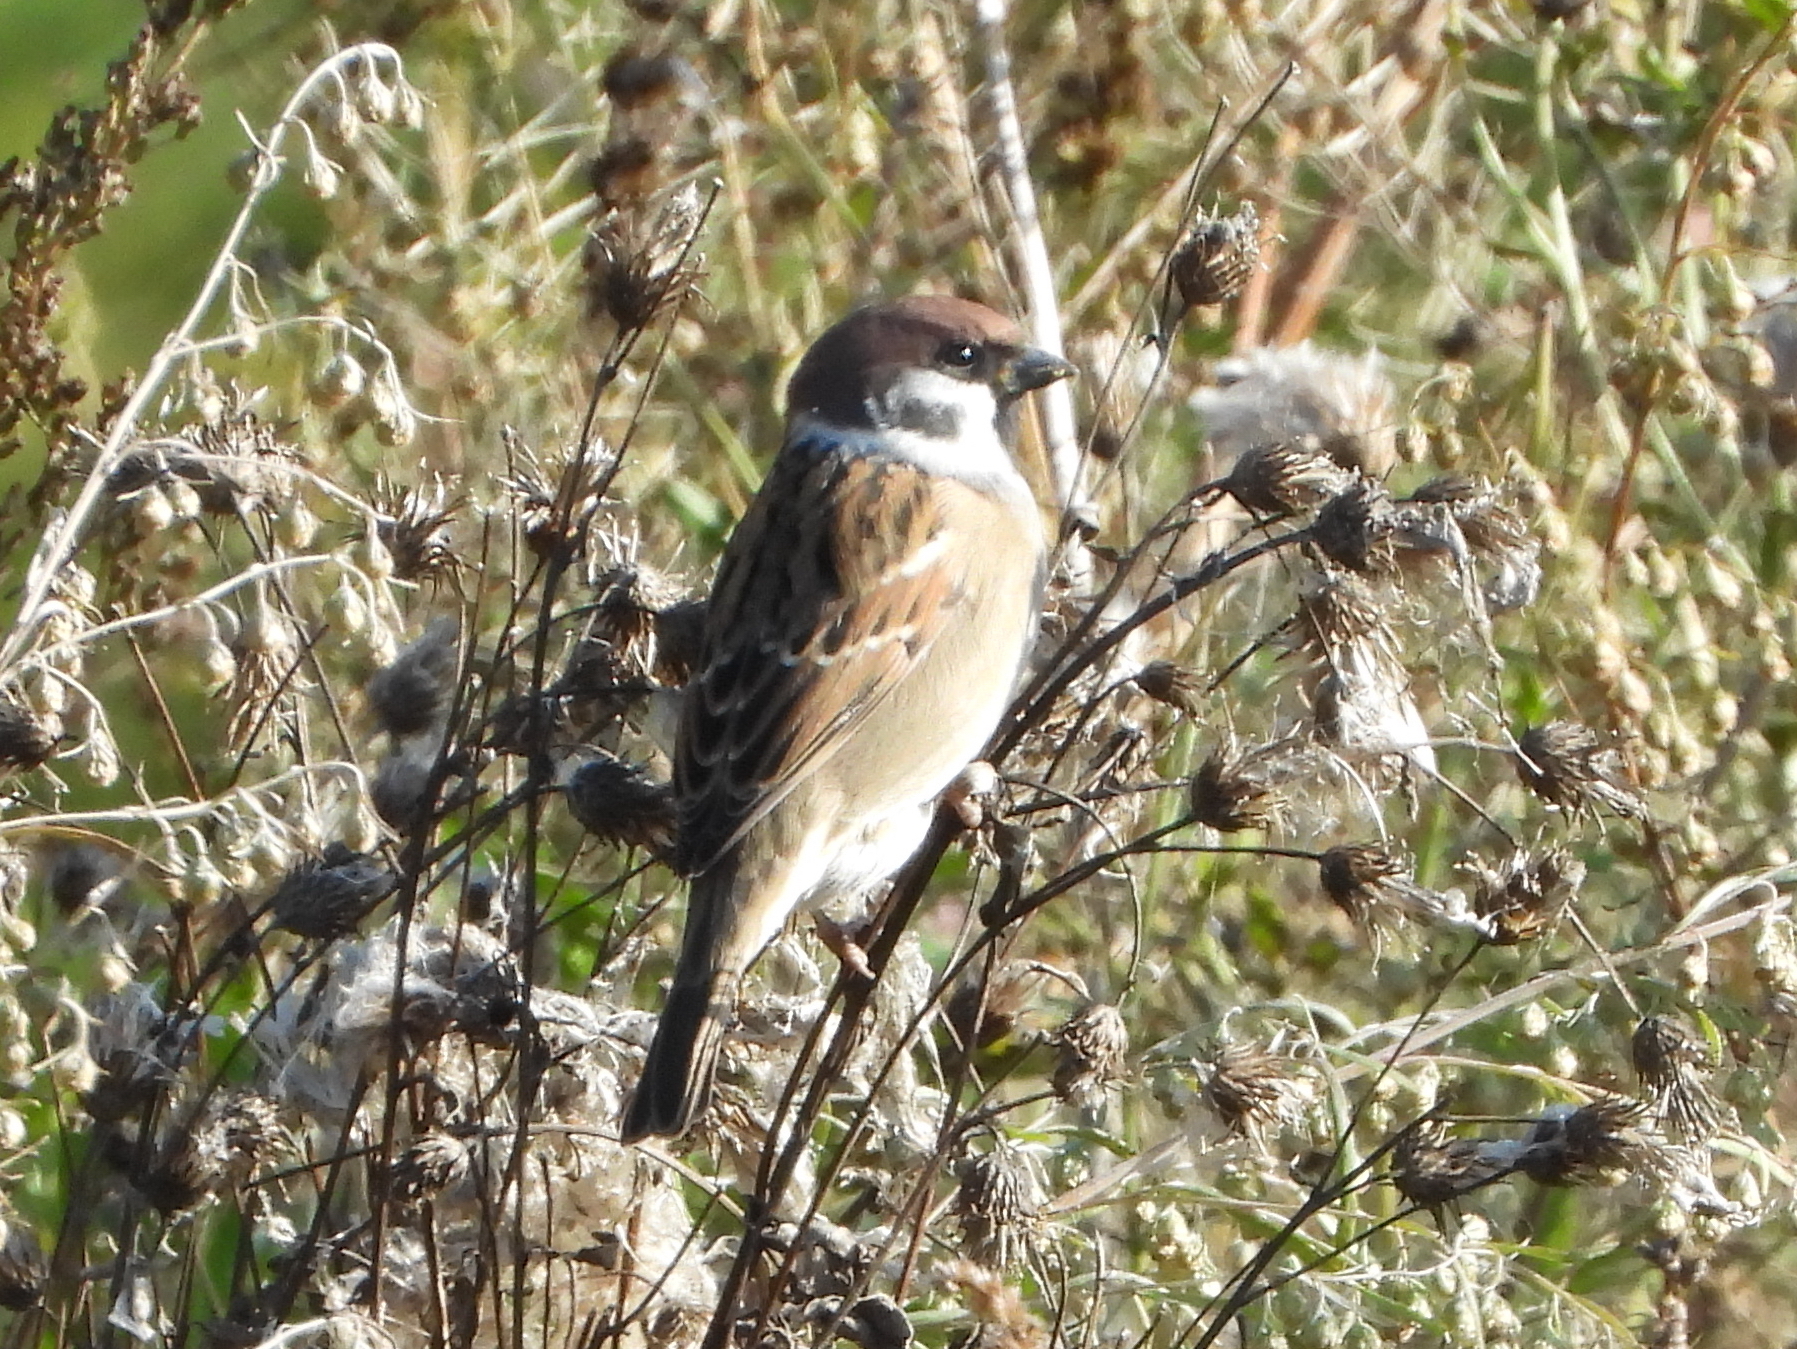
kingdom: Animalia
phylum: Chordata
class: Aves
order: Passeriformes
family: Passeridae
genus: Passer
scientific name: Passer montanus
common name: Eurasian tree sparrow
